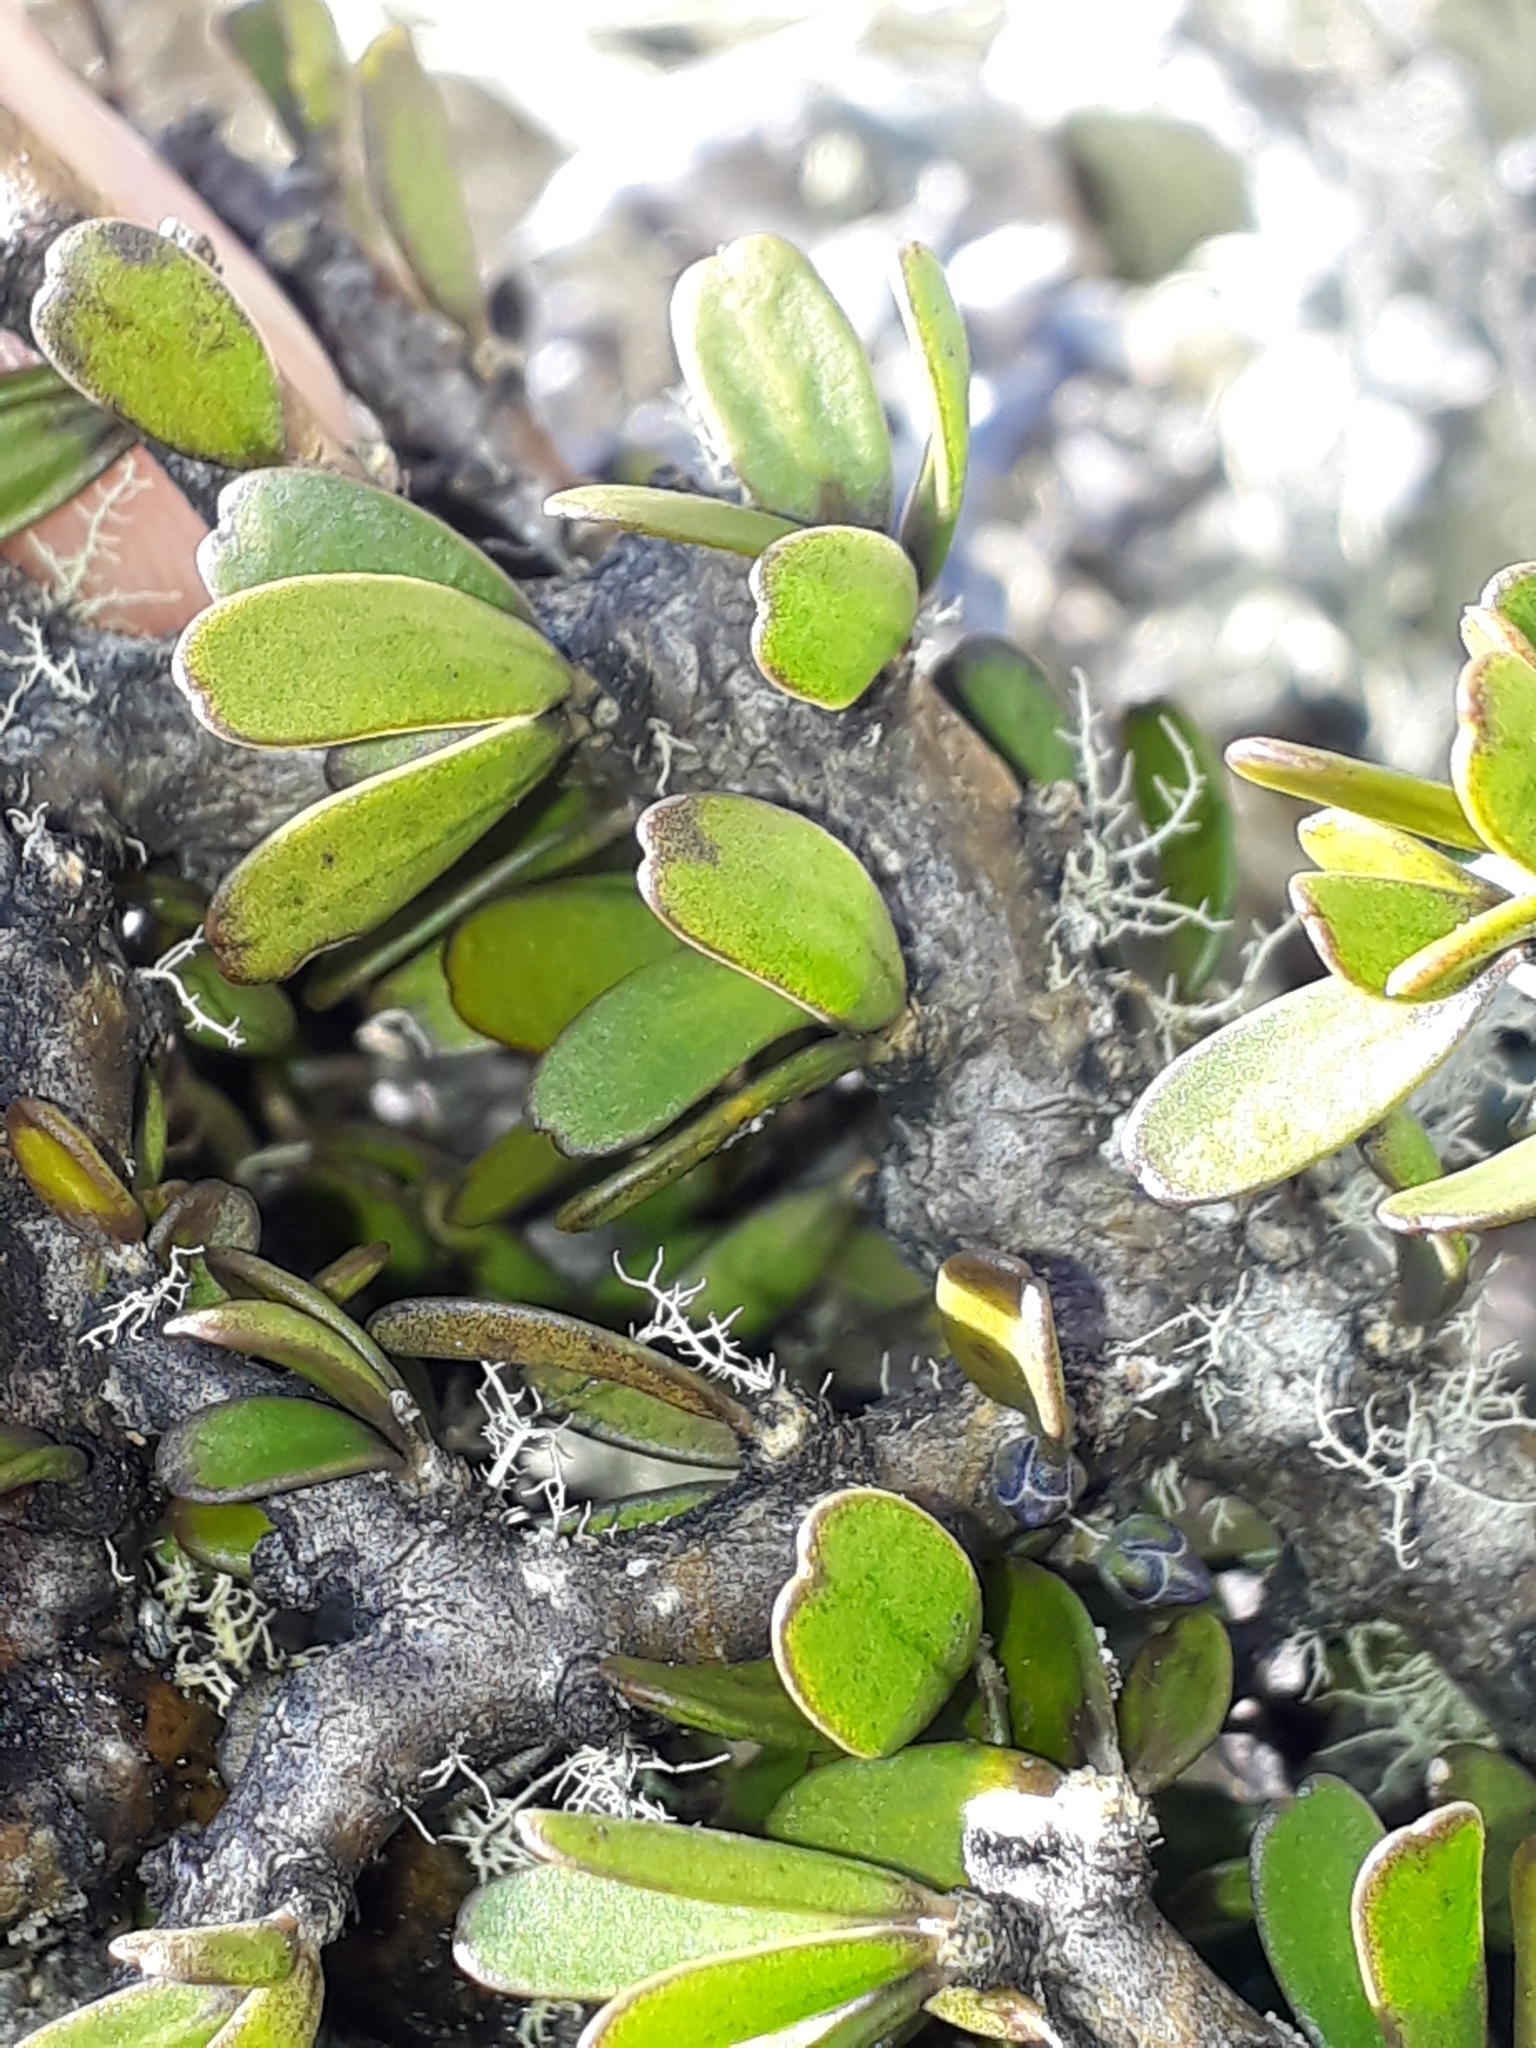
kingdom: Plantae
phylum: Tracheophyta
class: Magnoliopsida
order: Malpighiales
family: Violaceae
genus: Melicytus
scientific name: Melicytus alpinus
